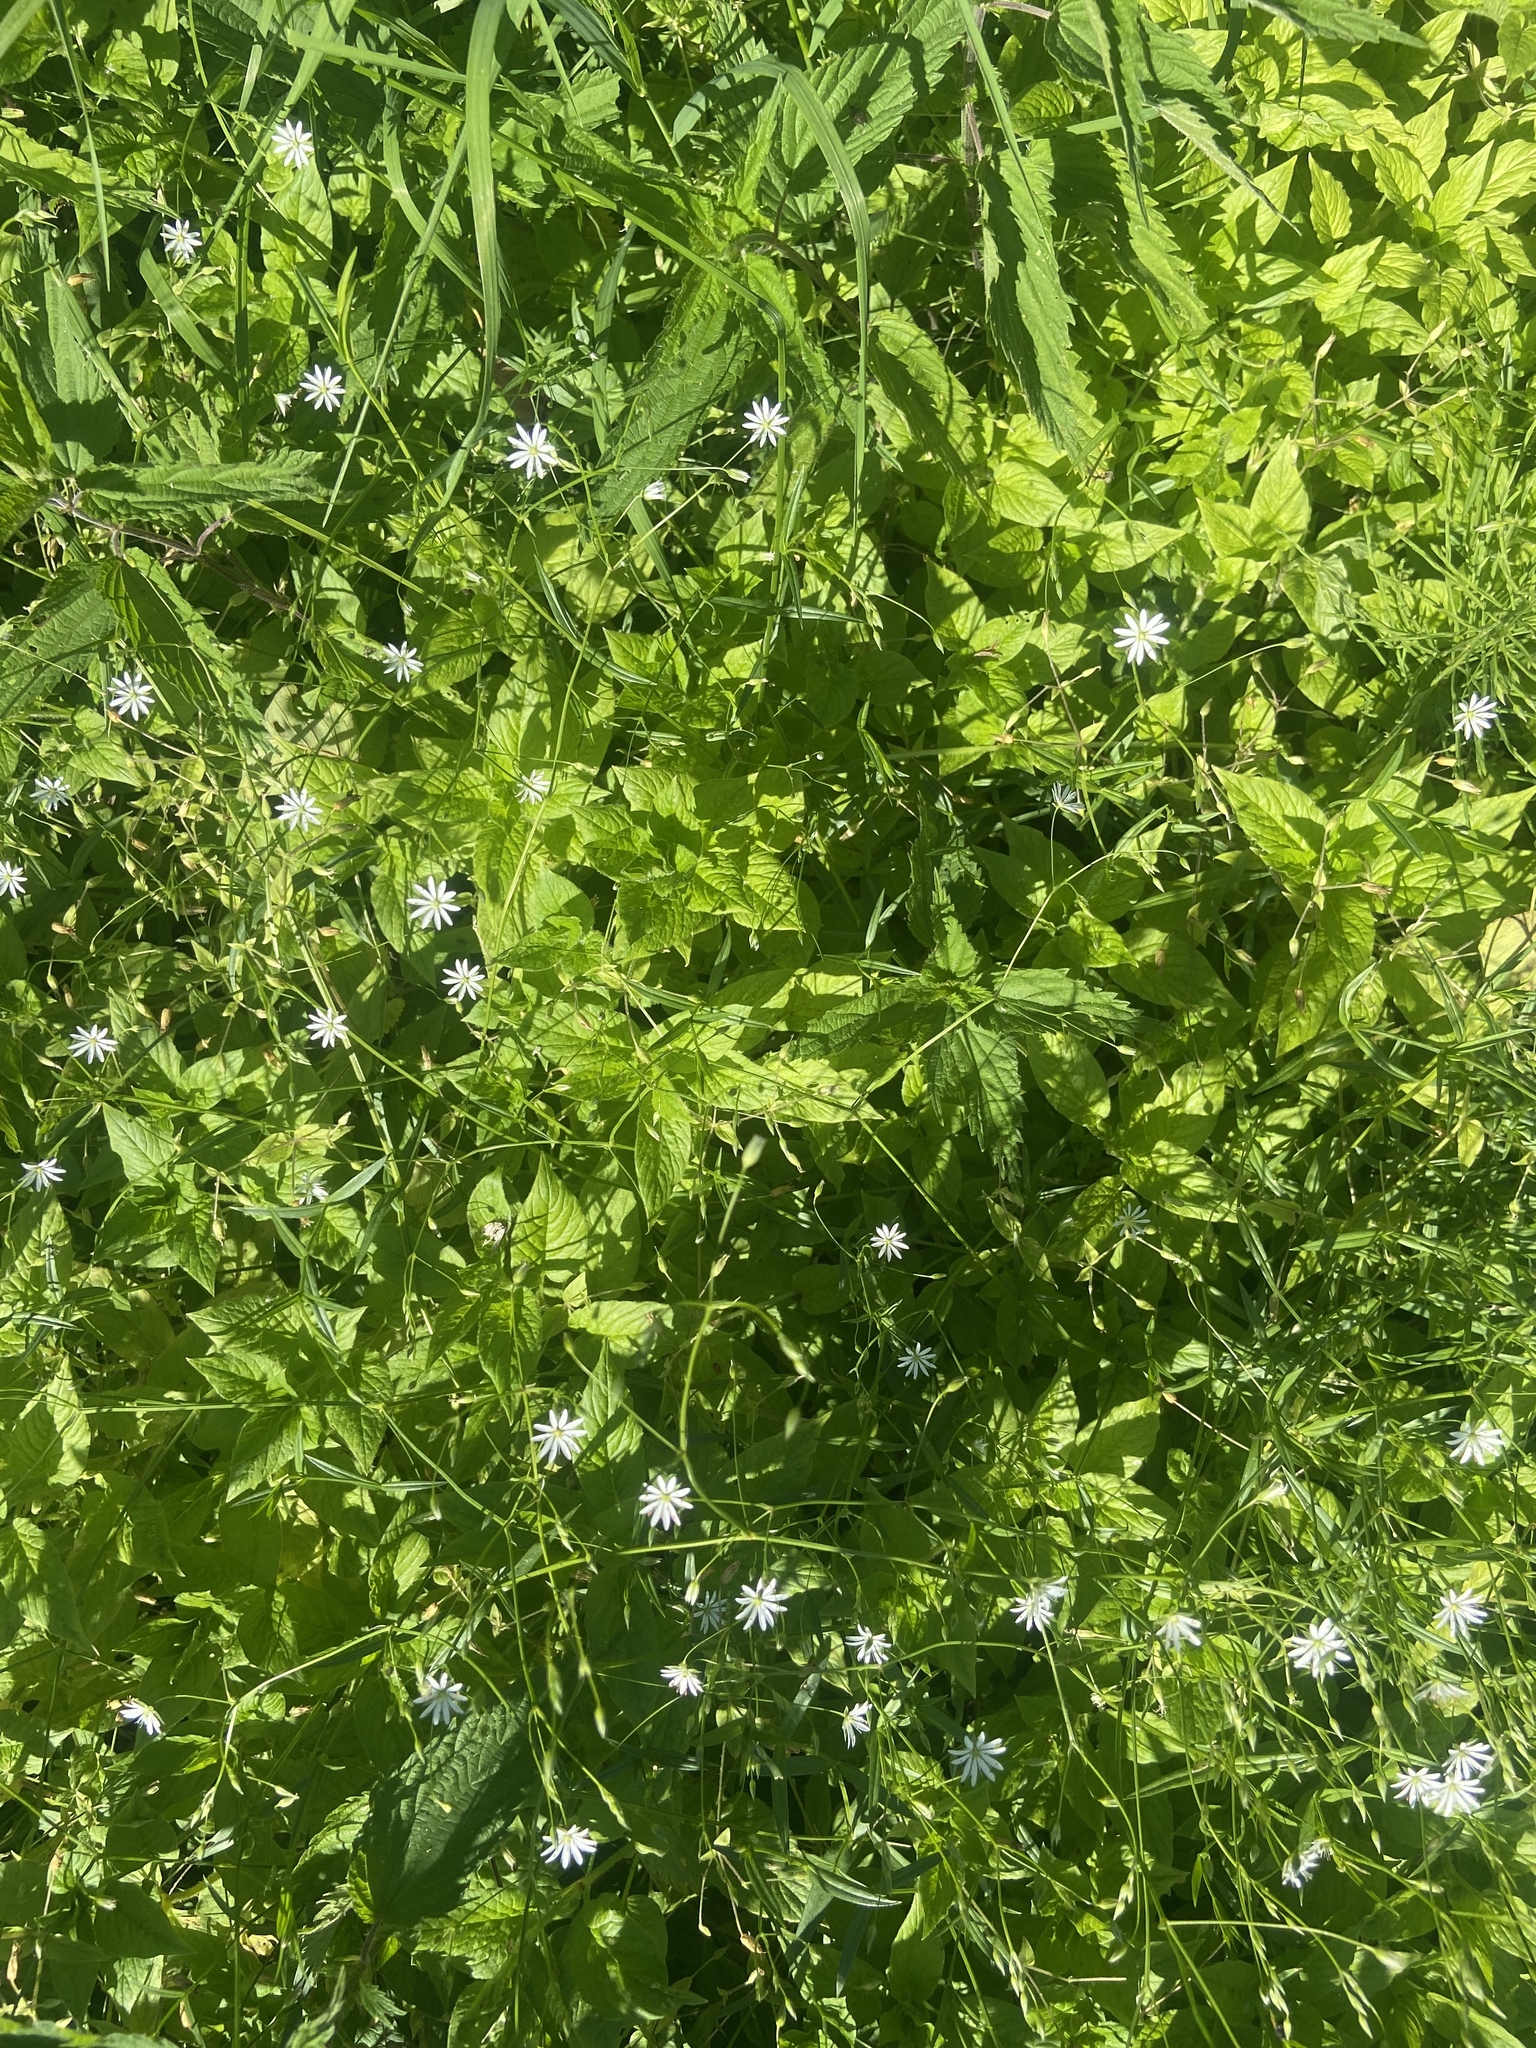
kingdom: Plantae
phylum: Tracheophyta
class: Magnoliopsida
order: Caryophyllales
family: Caryophyllaceae
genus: Stellaria
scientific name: Stellaria graminea
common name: Grass-like starwort
